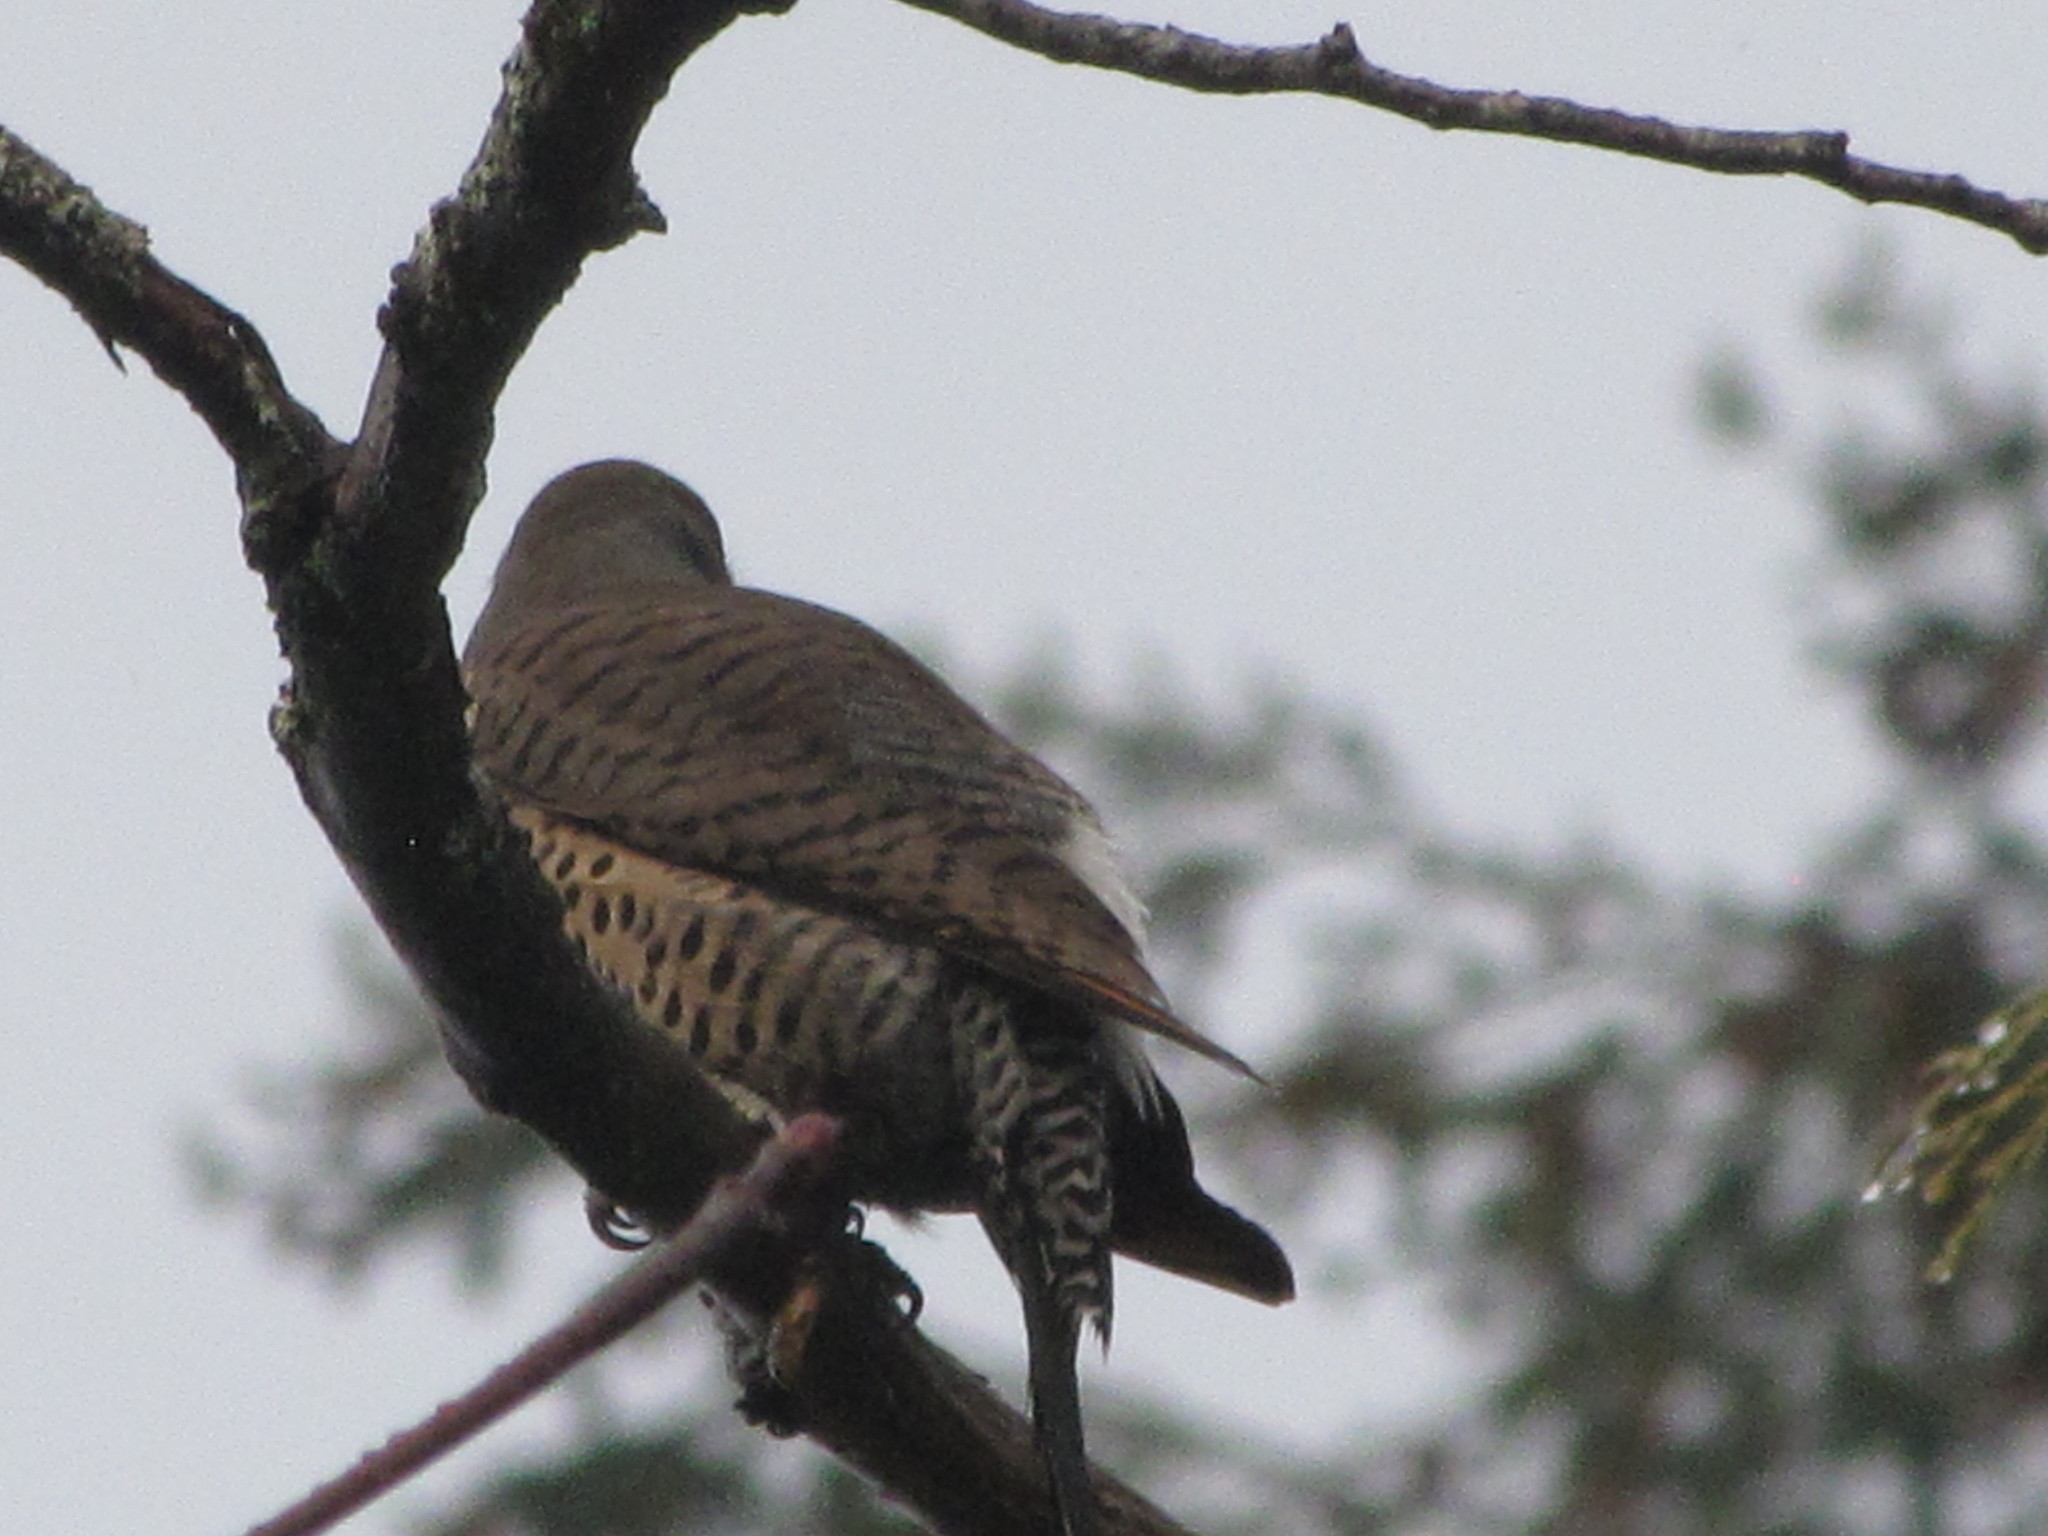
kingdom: Animalia
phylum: Chordata
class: Aves
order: Piciformes
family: Picidae
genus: Colaptes
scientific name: Colaptes auratus
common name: Northern flicker
